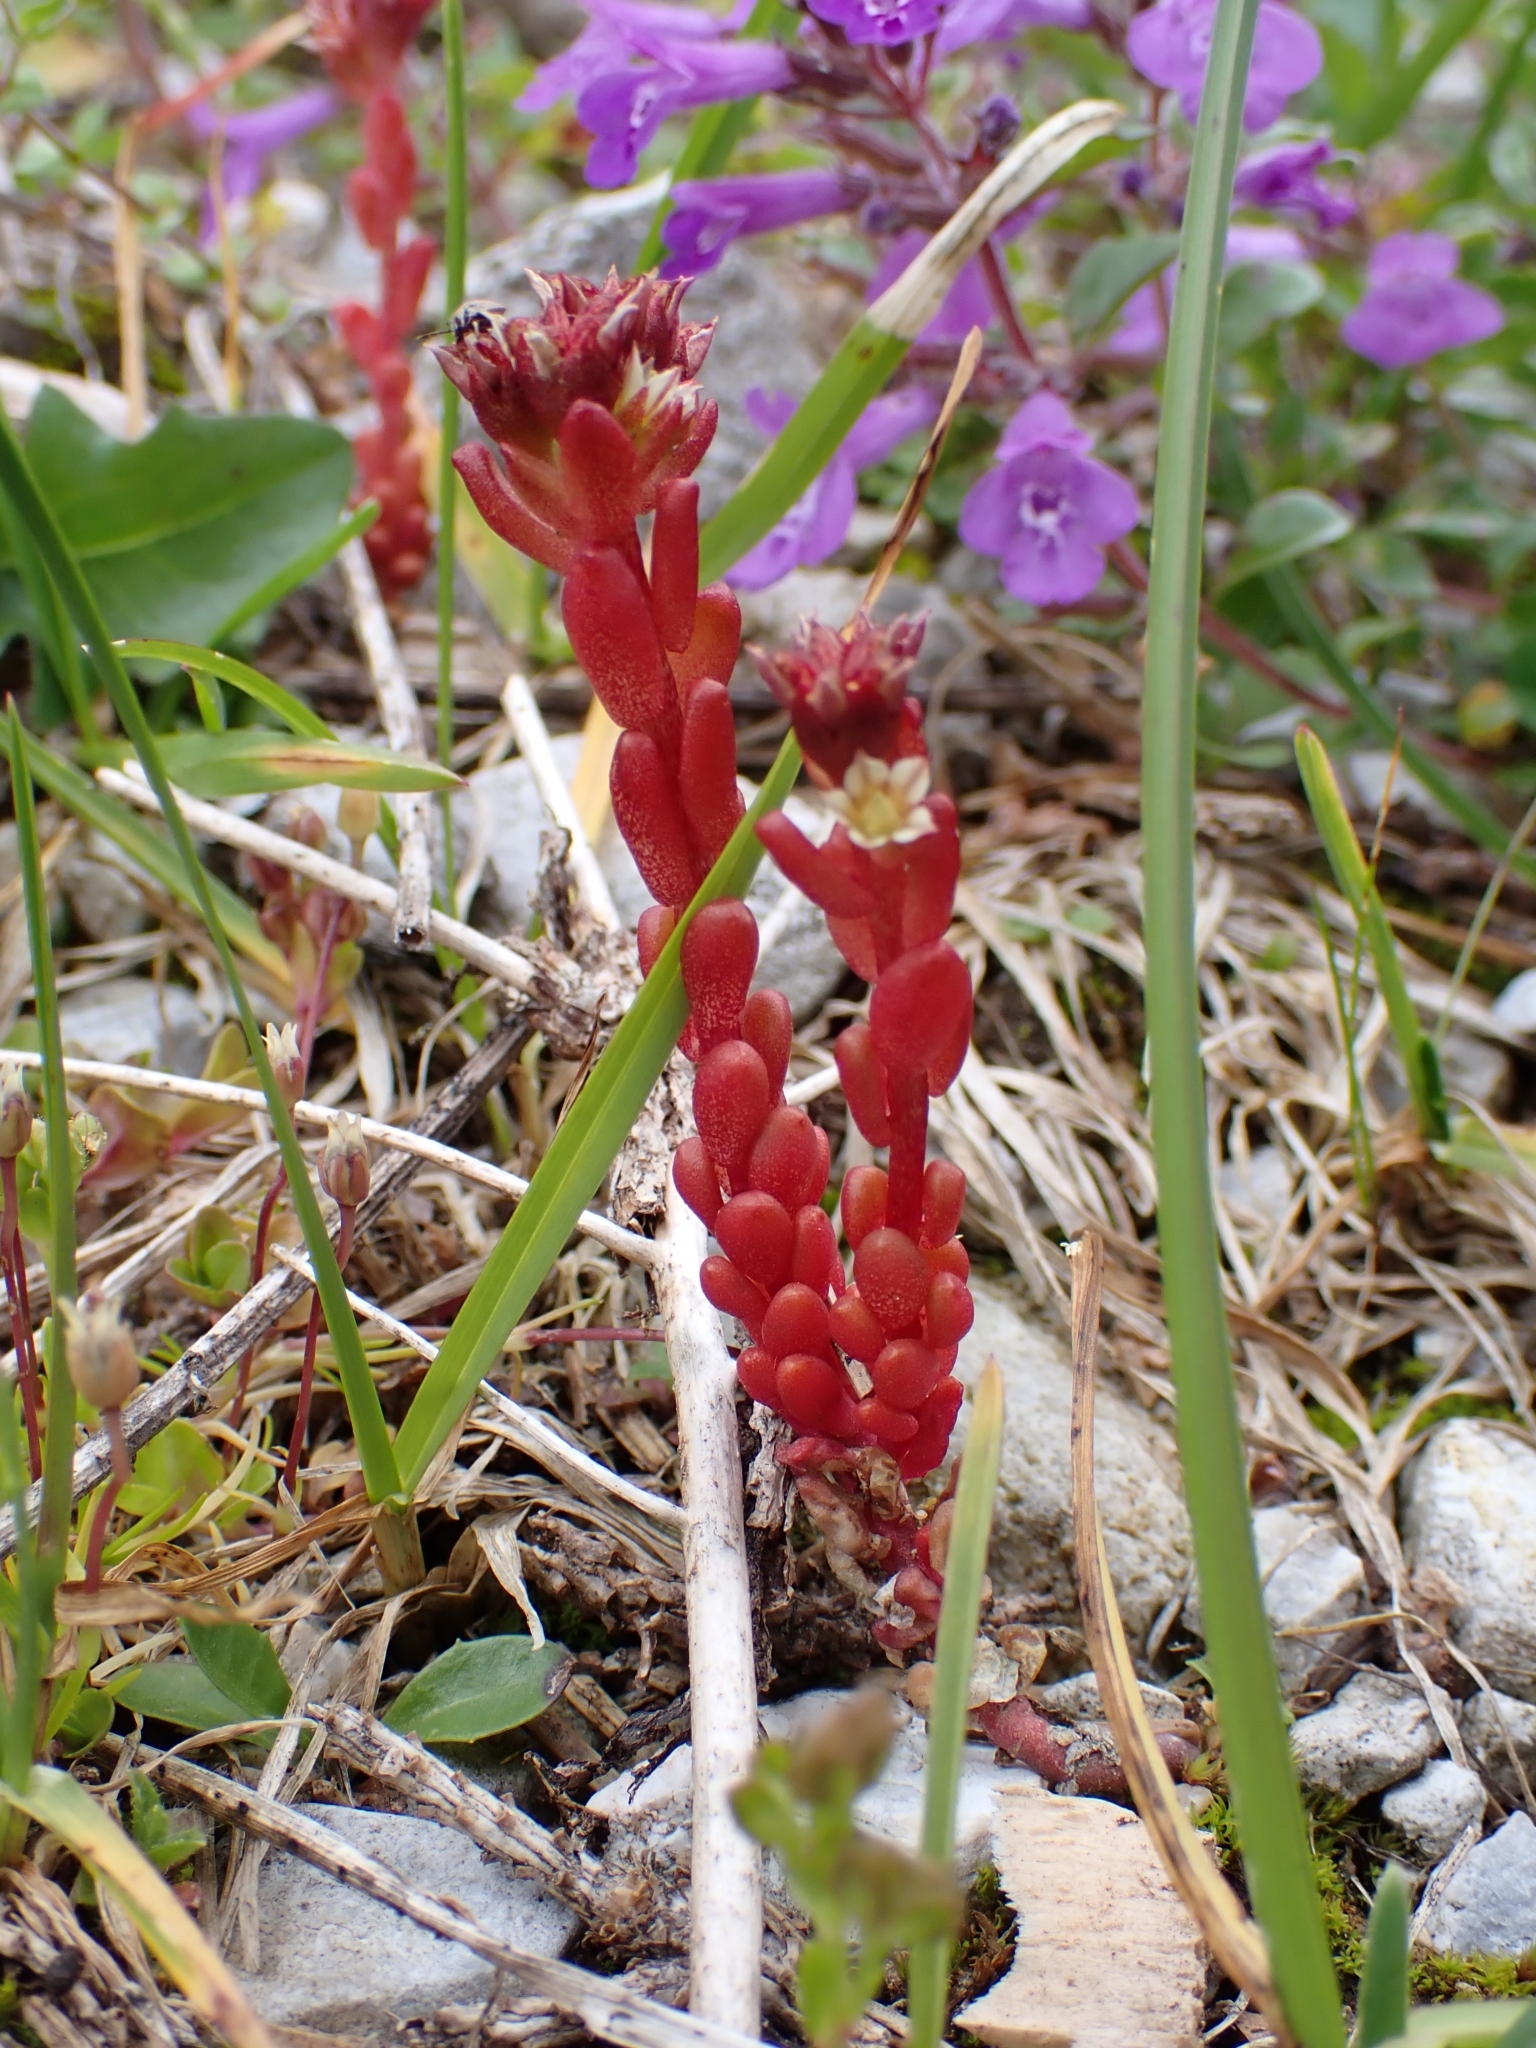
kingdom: Plantae
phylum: Tracheophyta
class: Magnoliopsida
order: Saxifragales
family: Crassulaceae
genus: Sedum
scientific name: Sedum atratum
